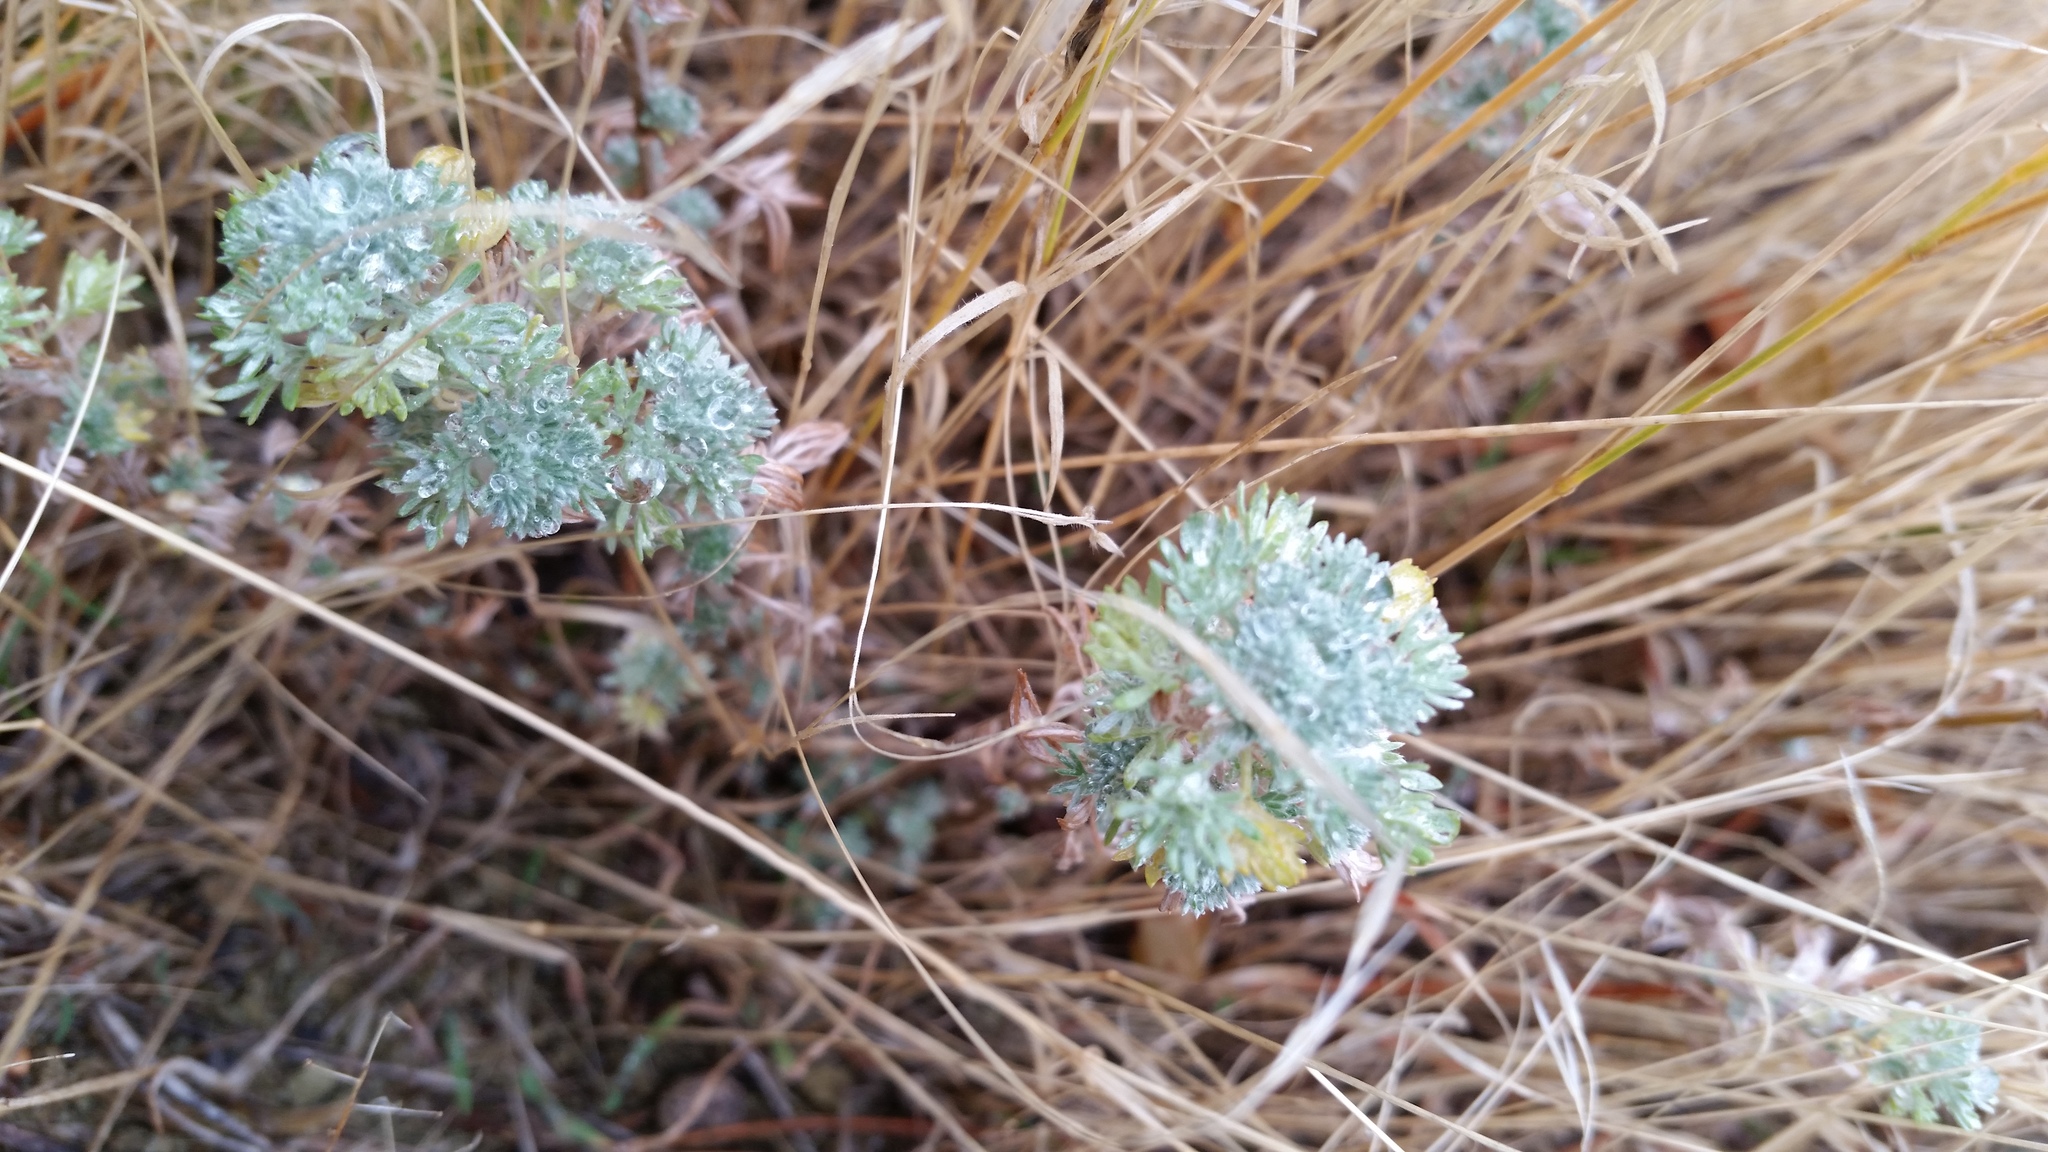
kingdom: Plantae
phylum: Tracheophyta
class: Magnoliopsida
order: Asterales
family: Asteraceae
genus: Artemisia
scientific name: Artemisia frigida
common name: Prairie sagewort
